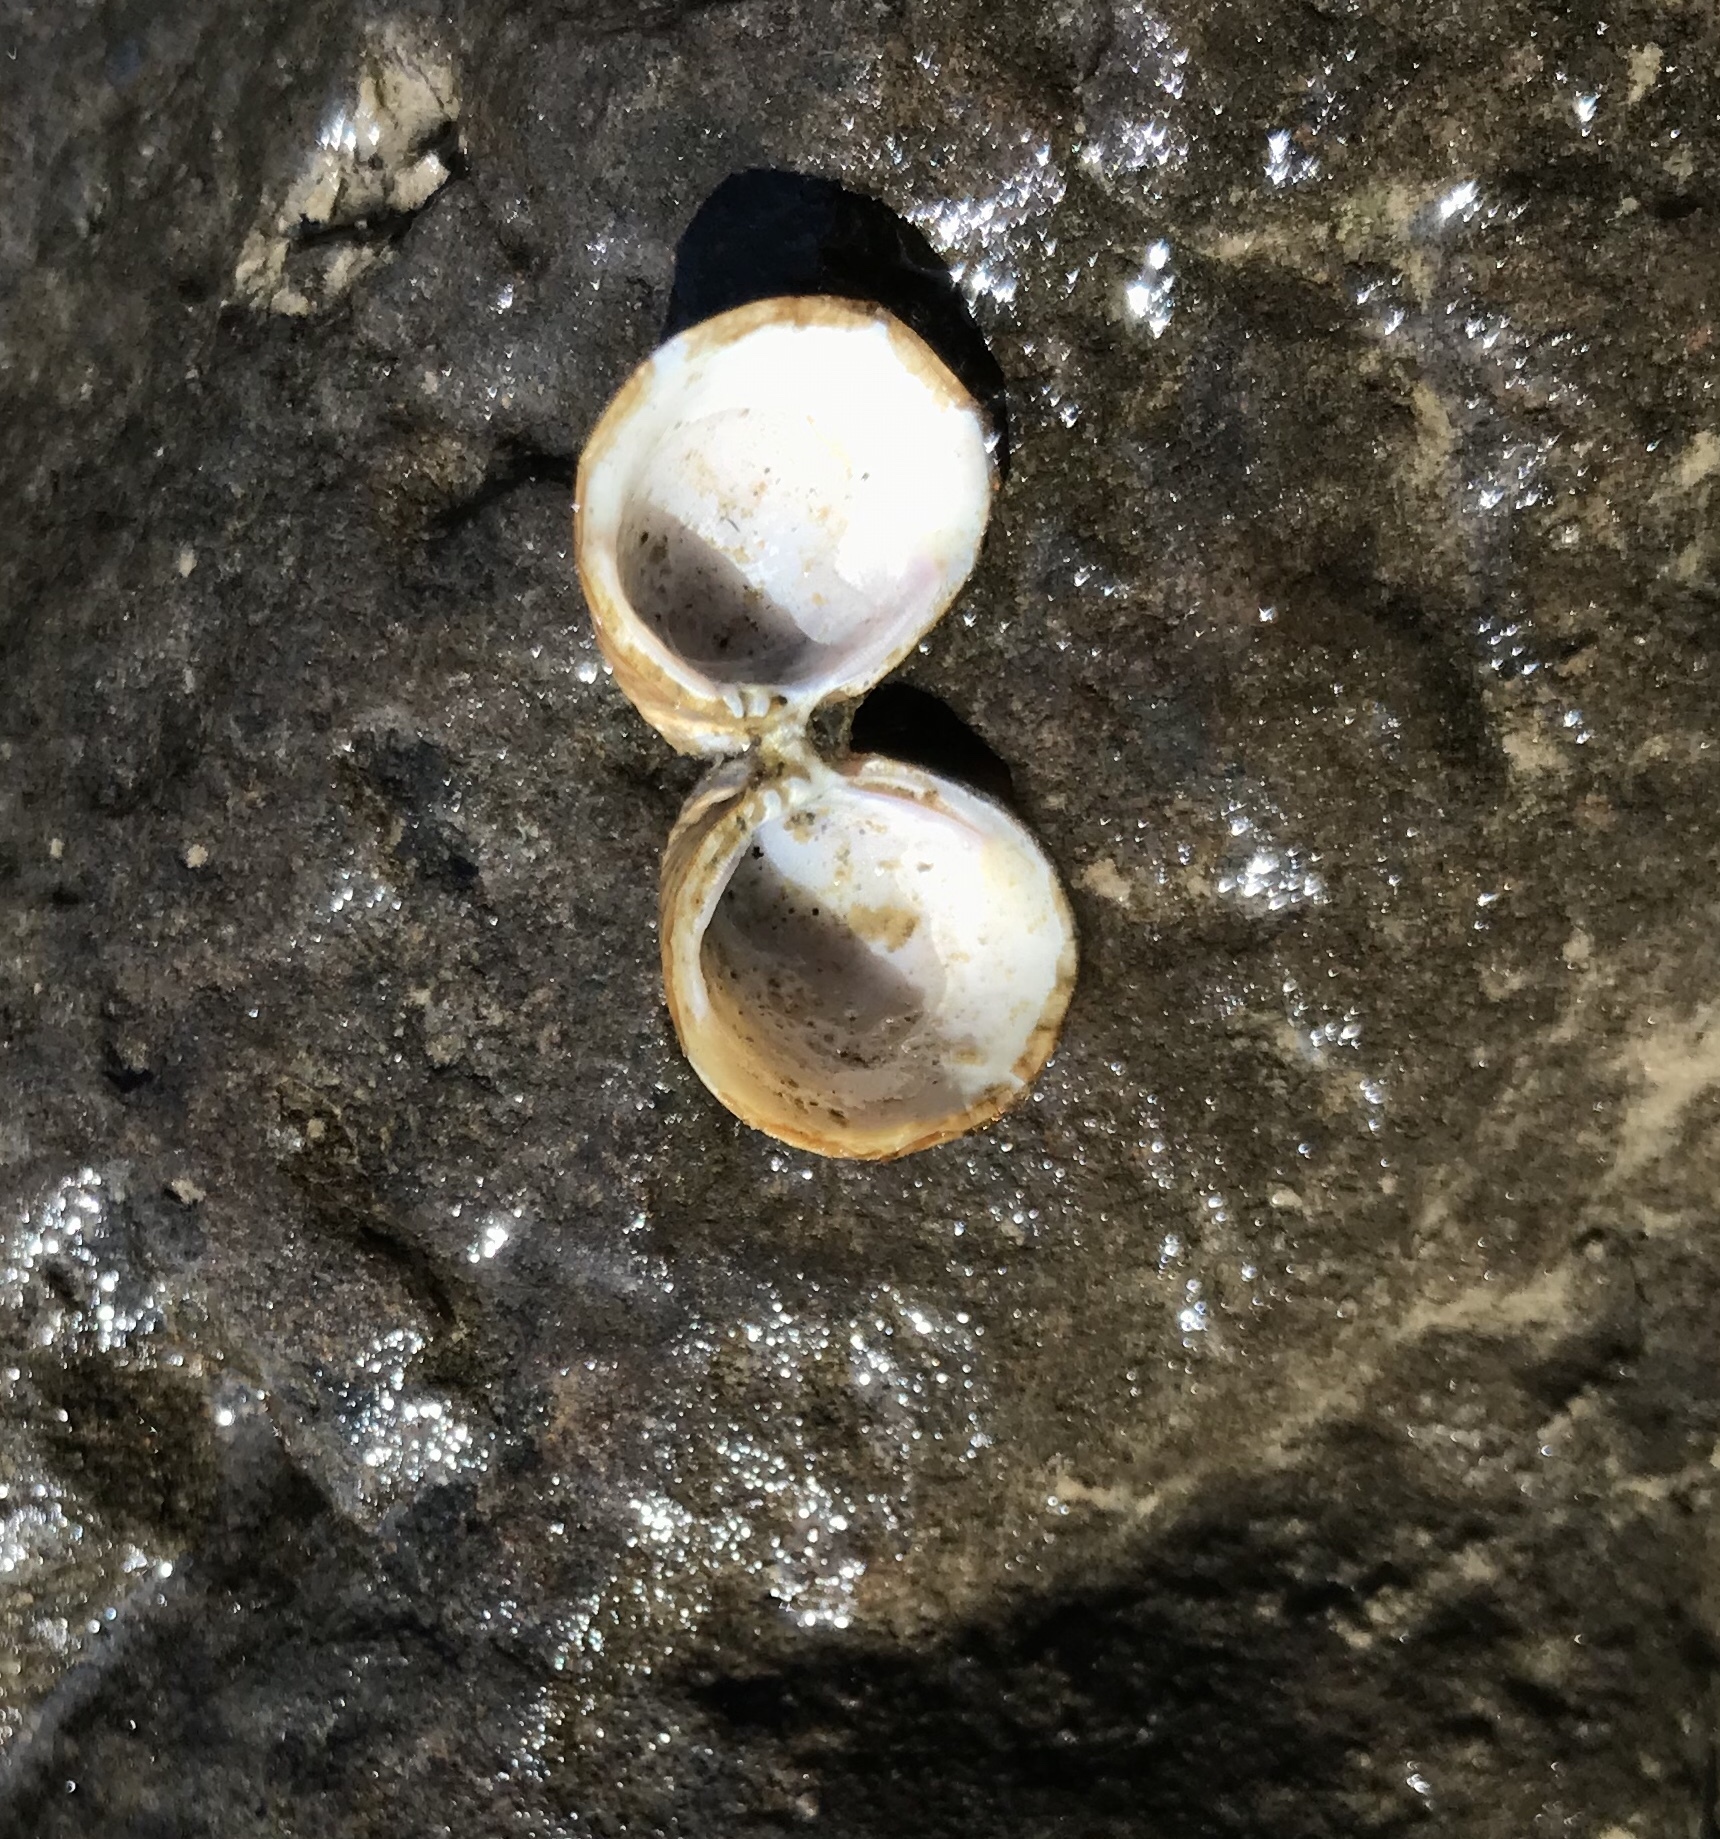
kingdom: Animalia
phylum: Mollusca
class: Bivalvia
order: Venerida
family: Cyrenidae
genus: Corbicula
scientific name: Corbicula fluminea
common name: Asian clam
